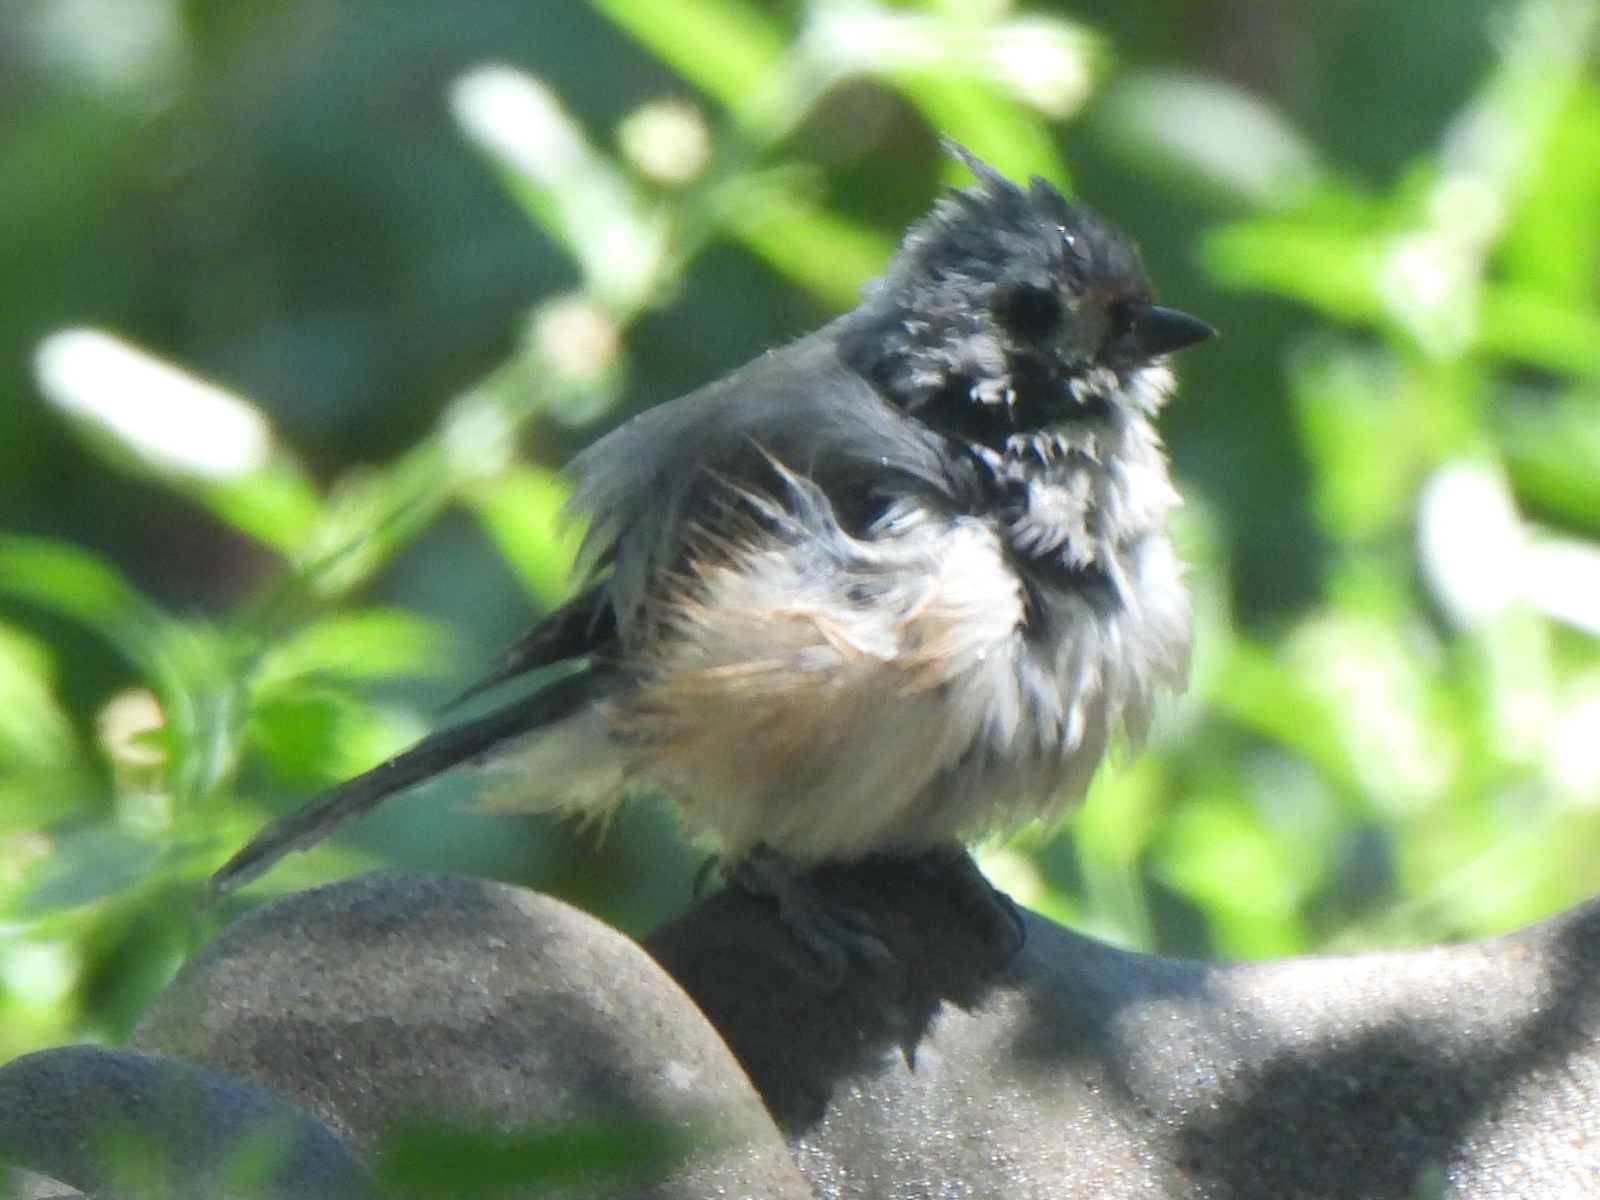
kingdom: Animalia
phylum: Chordata
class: Aves
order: Passeriformes
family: Paridae
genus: Baeolophus
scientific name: Baeolophus bicolor
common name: Tufted titmouse
